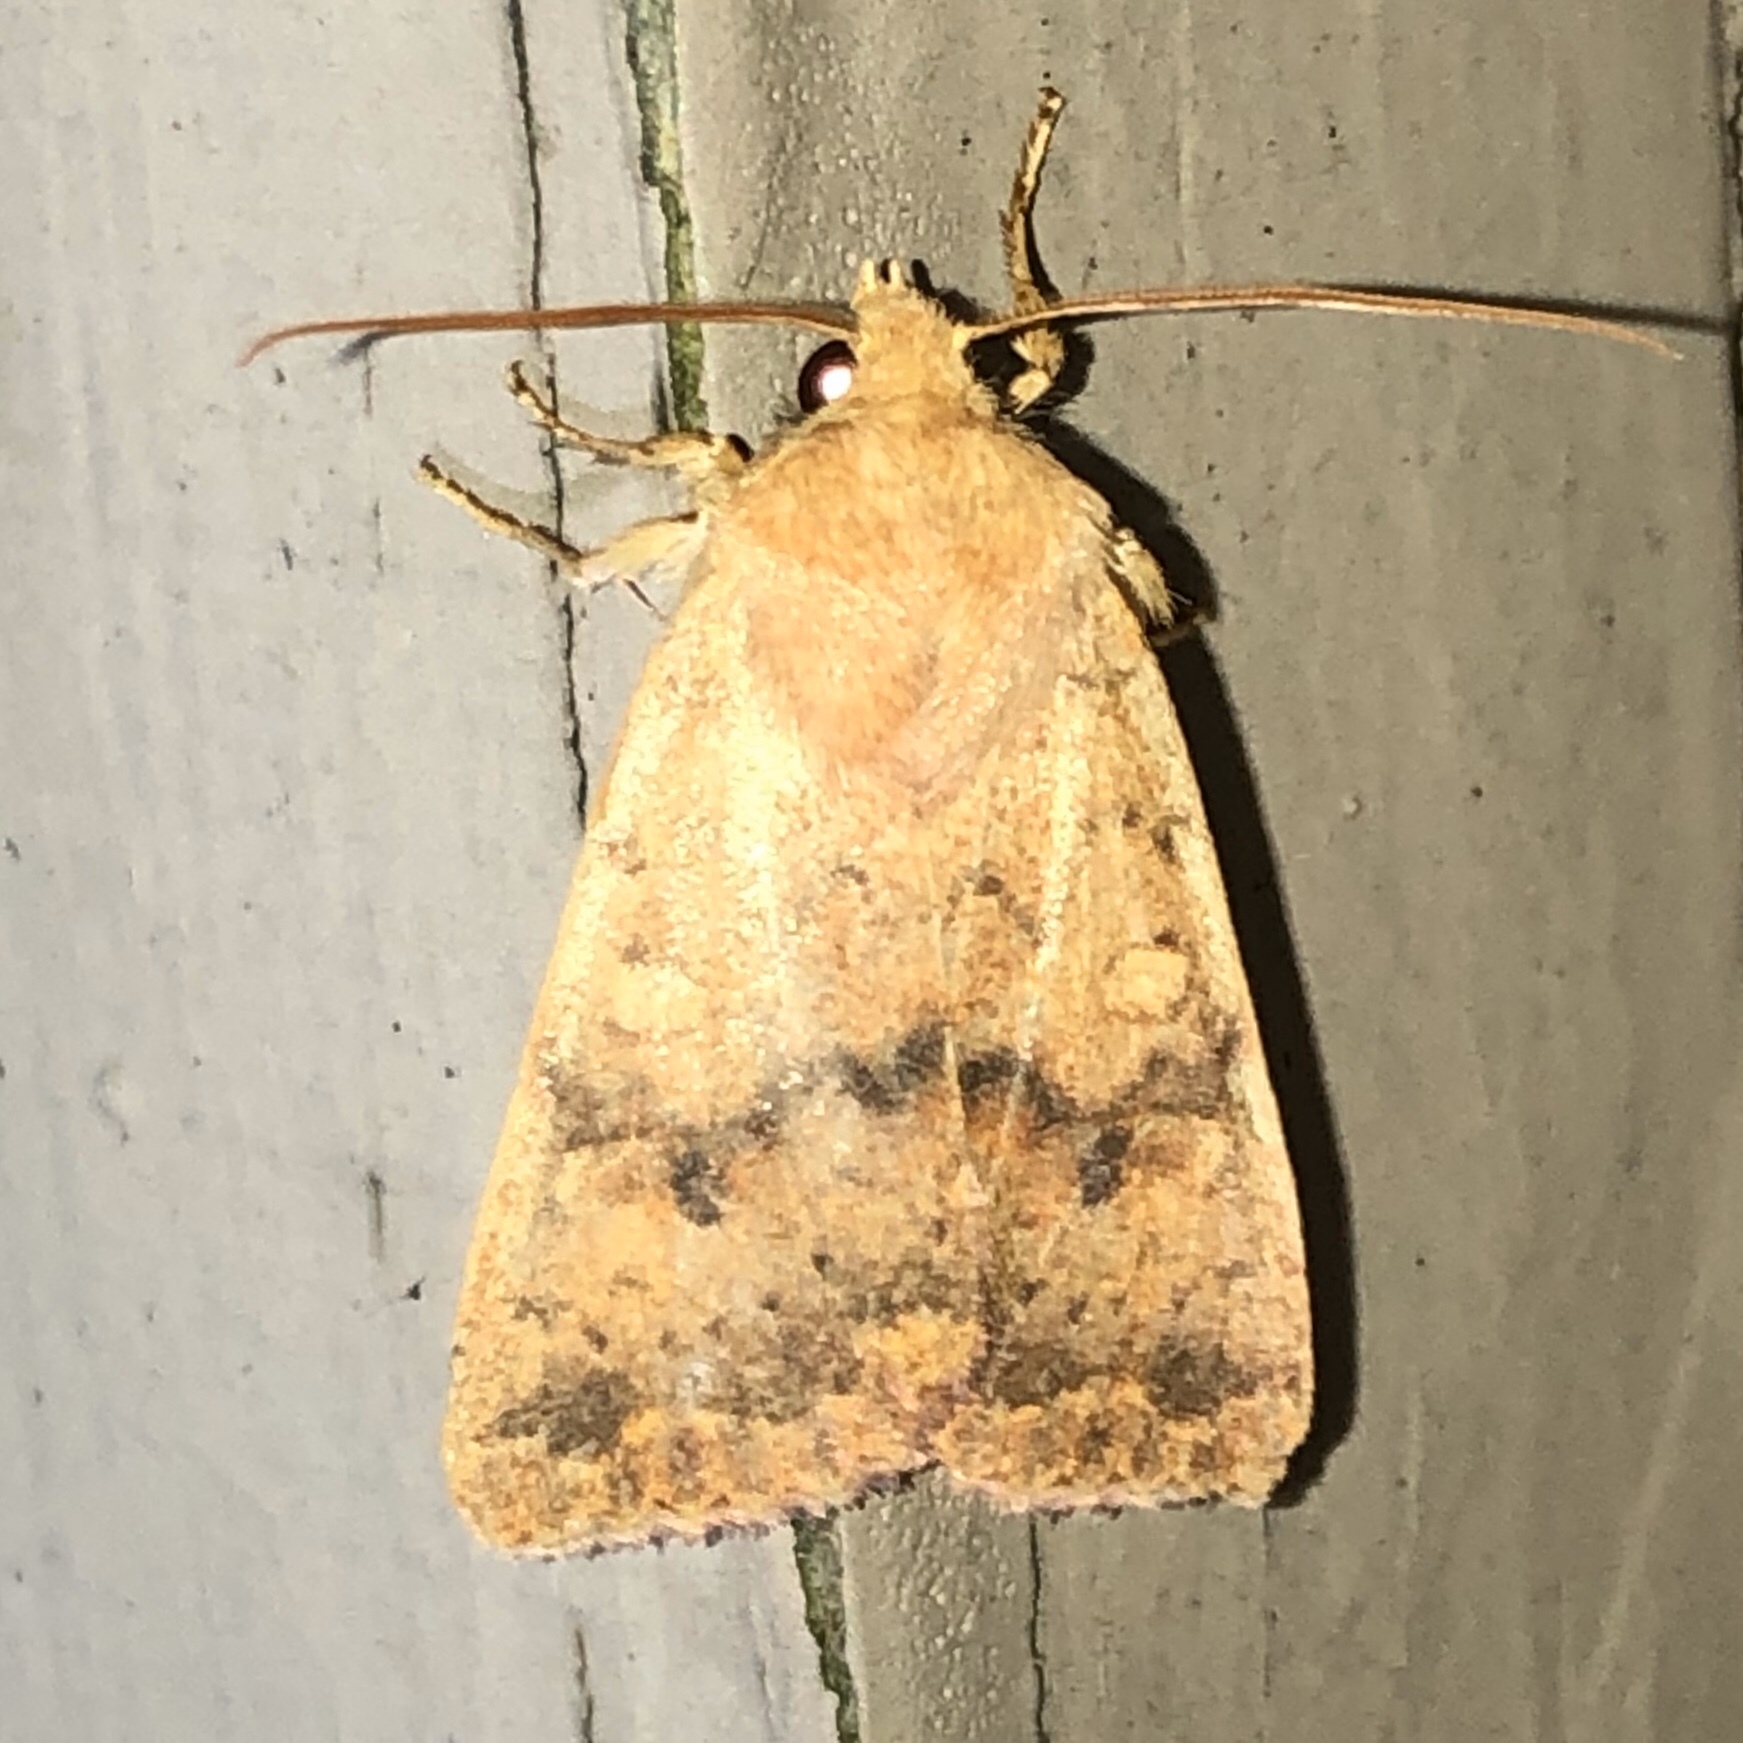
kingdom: Animalia
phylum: Arthropoda
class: Insecta
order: Lepidoptera
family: Noctuidae
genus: Agrochola
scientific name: Agrochola bicolorago
